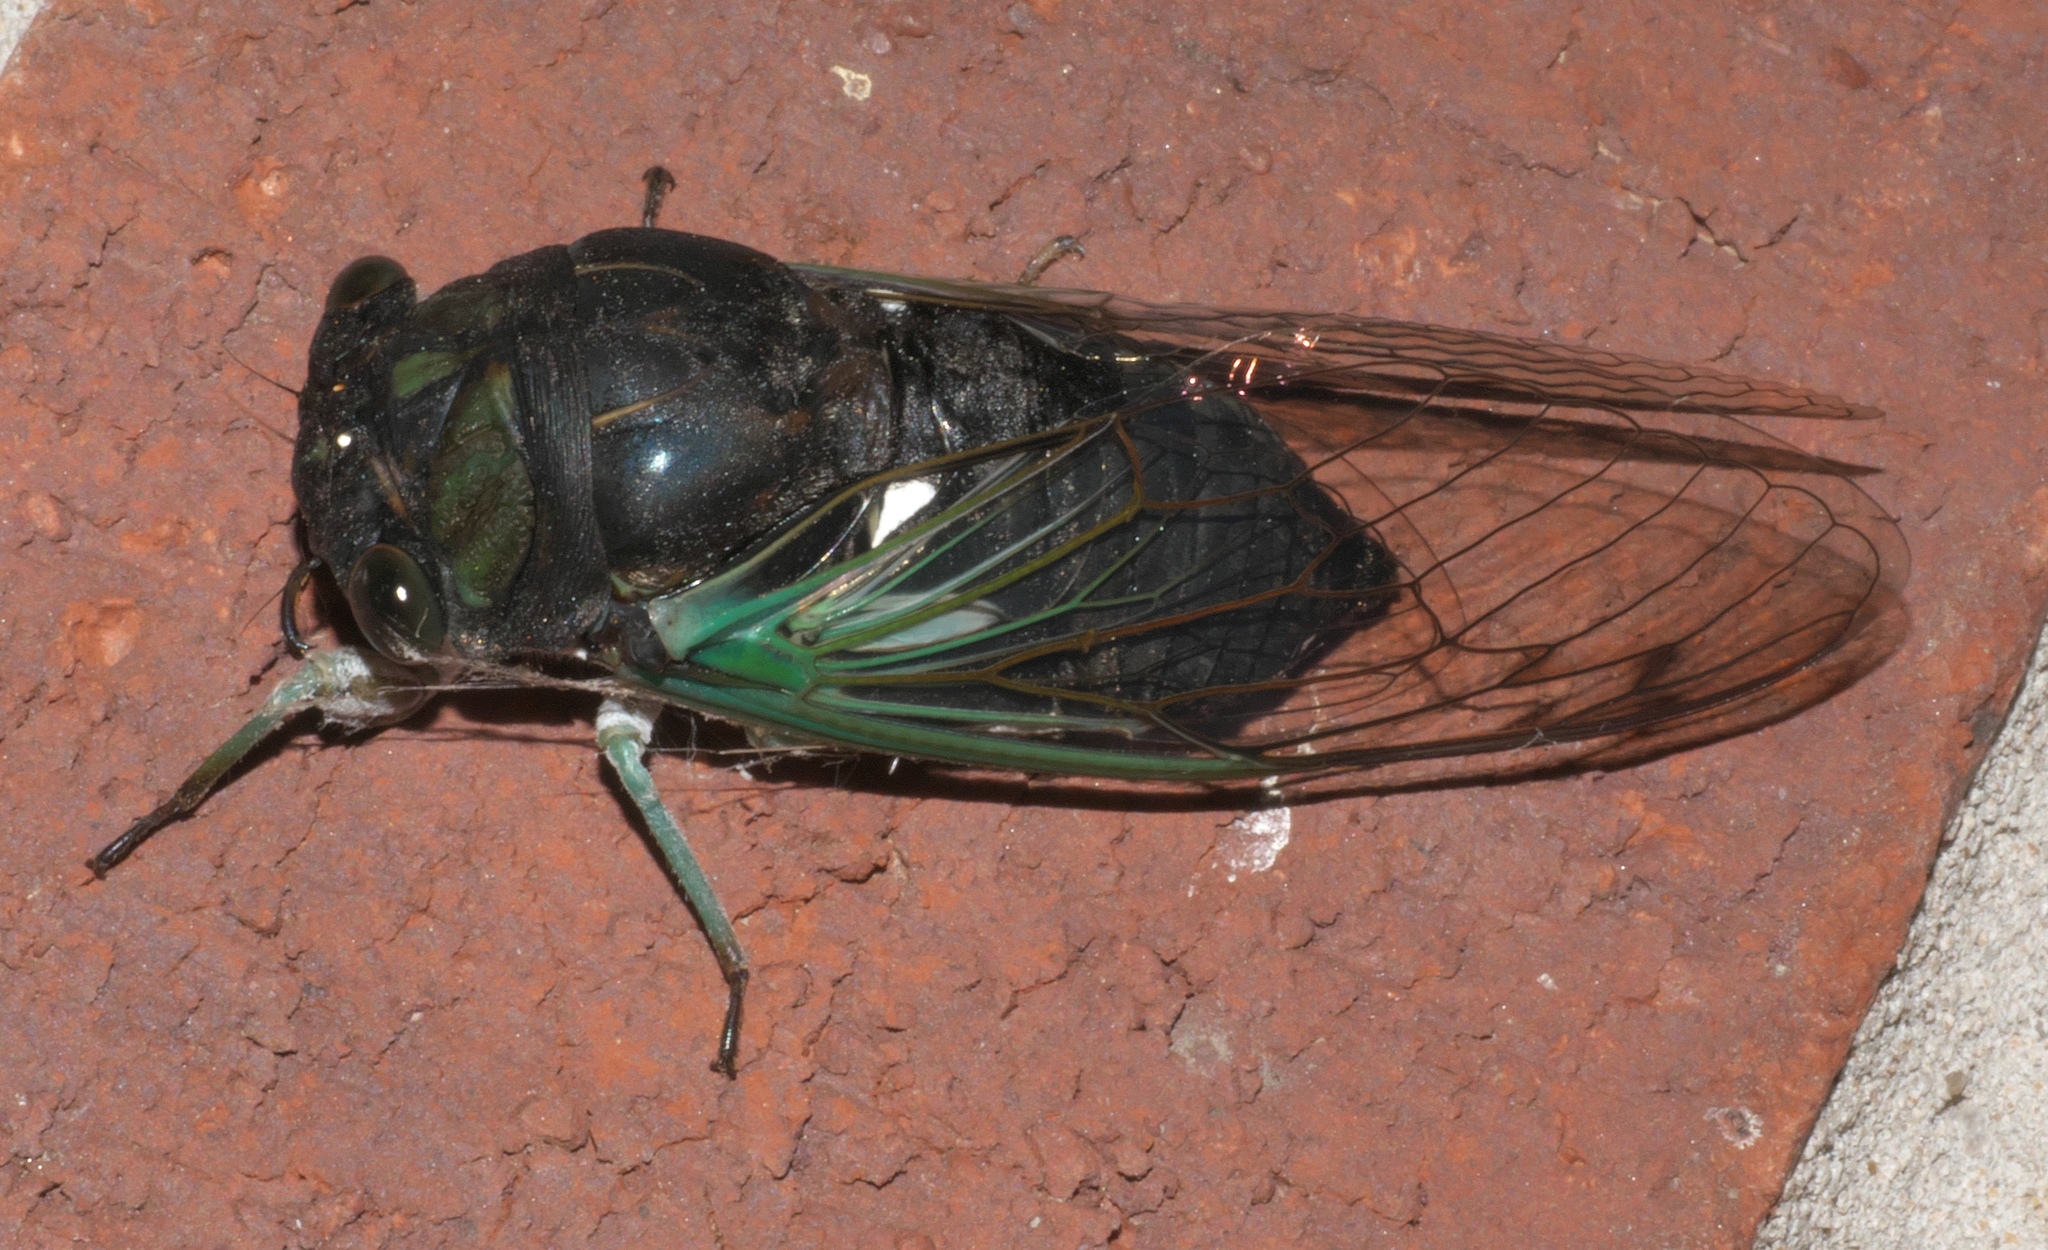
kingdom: Animalia
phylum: Arthropoda
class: Insecta
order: Hemiptera
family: Cicadidae
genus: Neotibicen
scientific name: Neotibicen tibicen
